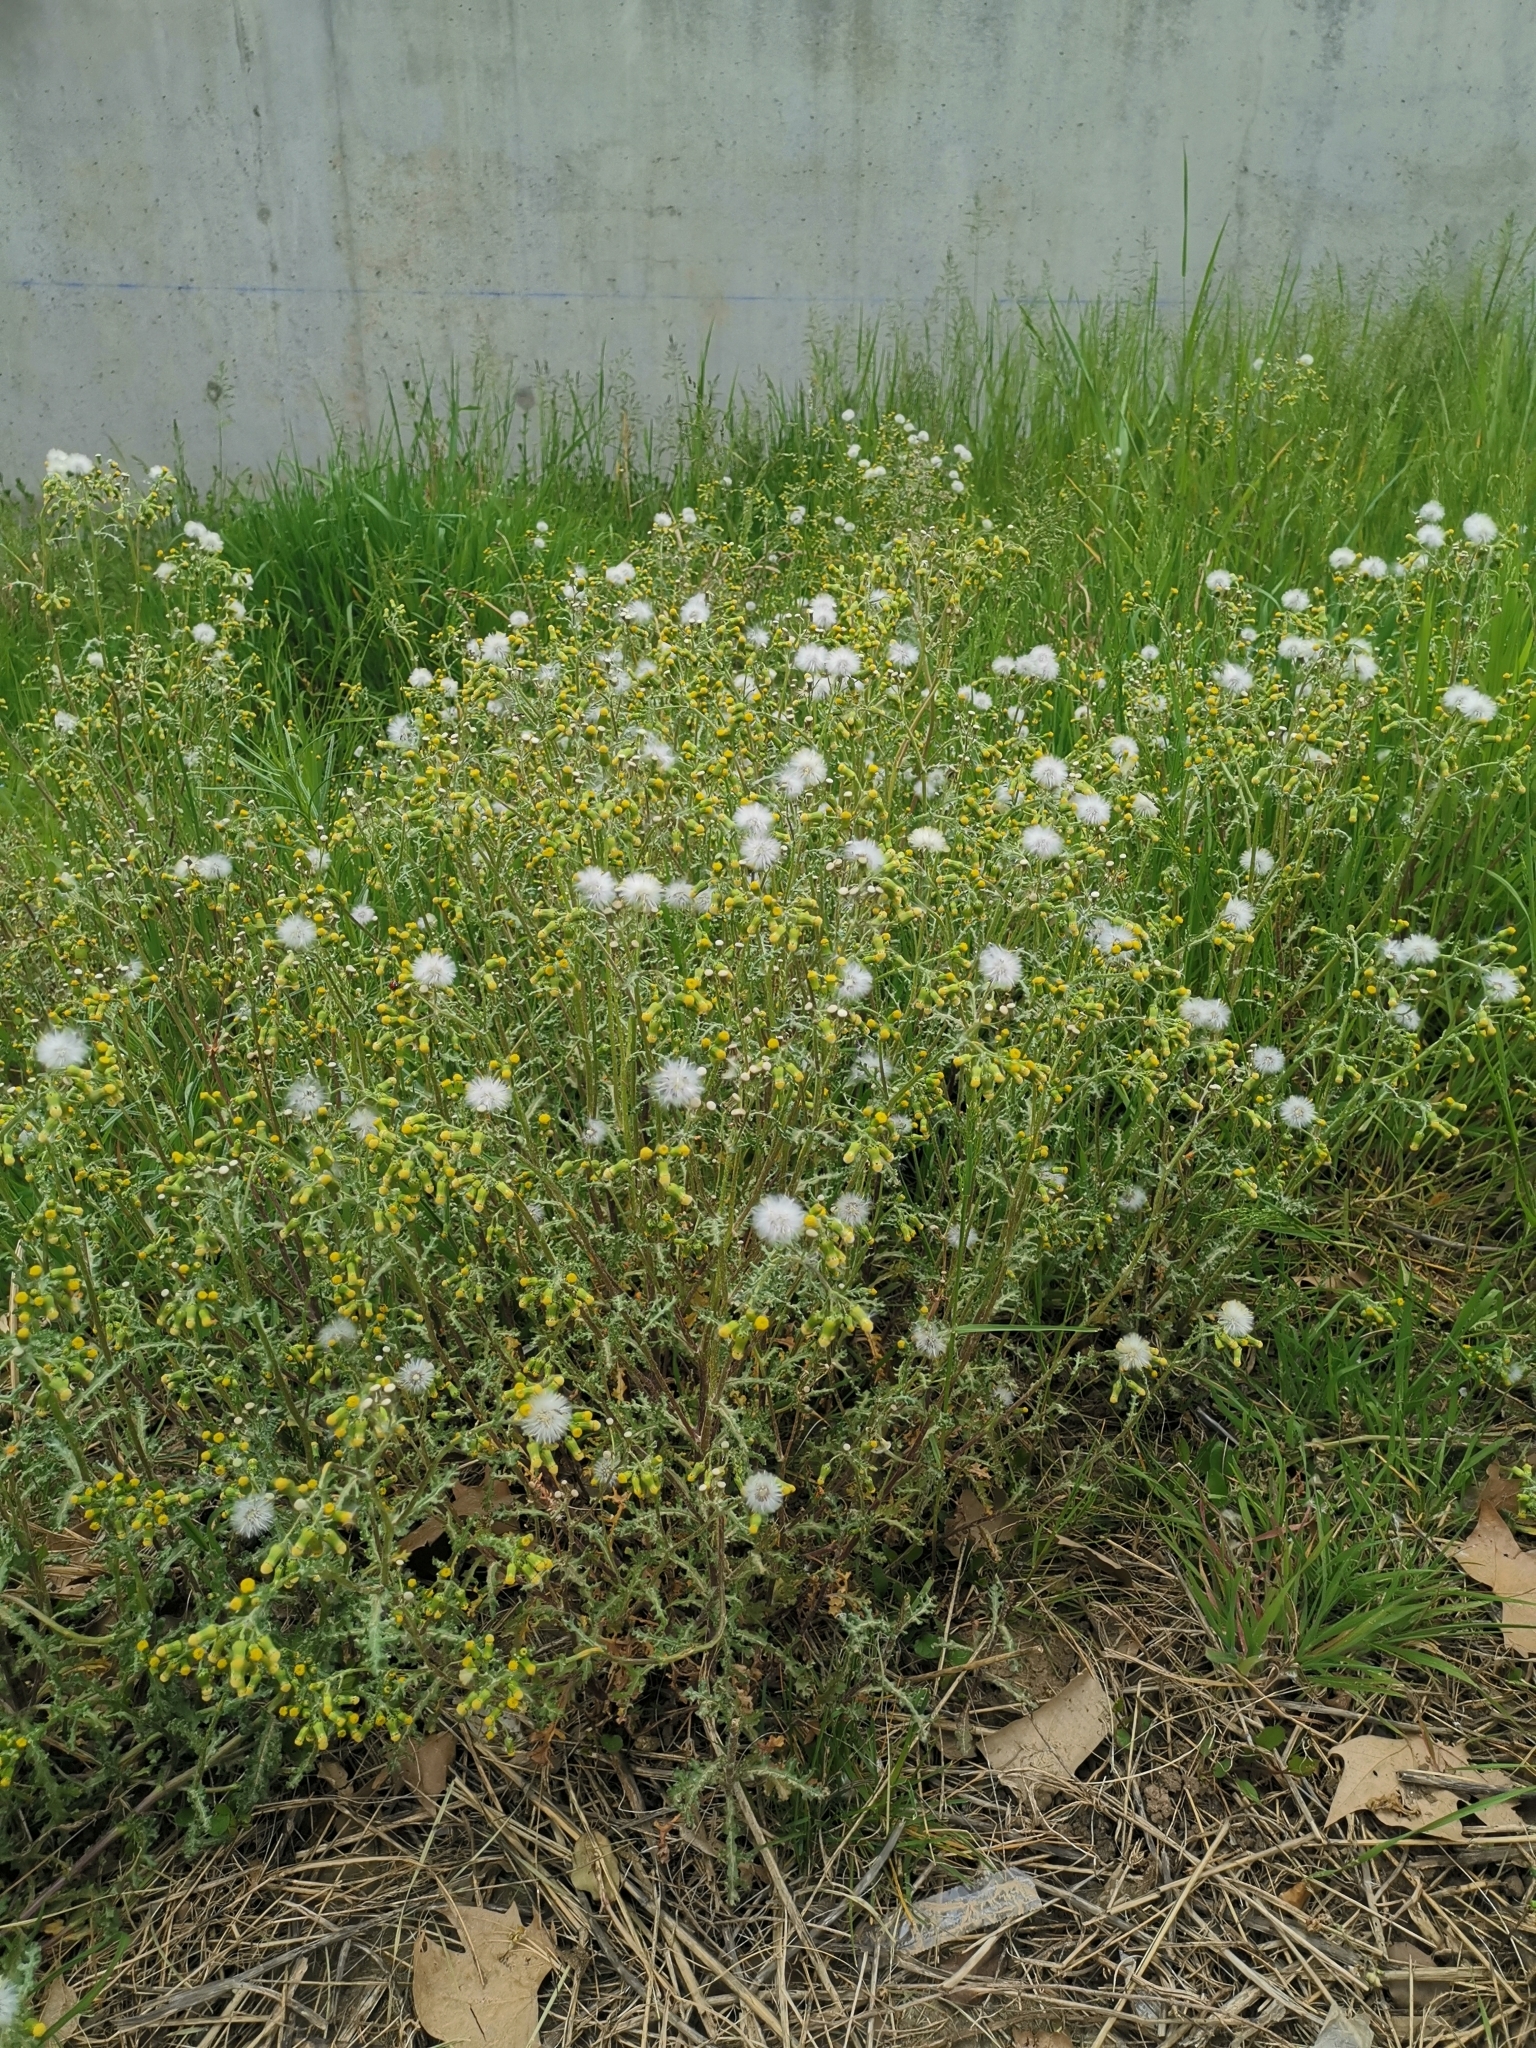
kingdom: Plantae
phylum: Tracheophyta
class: Magnoliopsida
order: Asterales
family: Asteraceae
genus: Senecio
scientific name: Senecio vulgaris
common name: Old-man-in-the-spring
